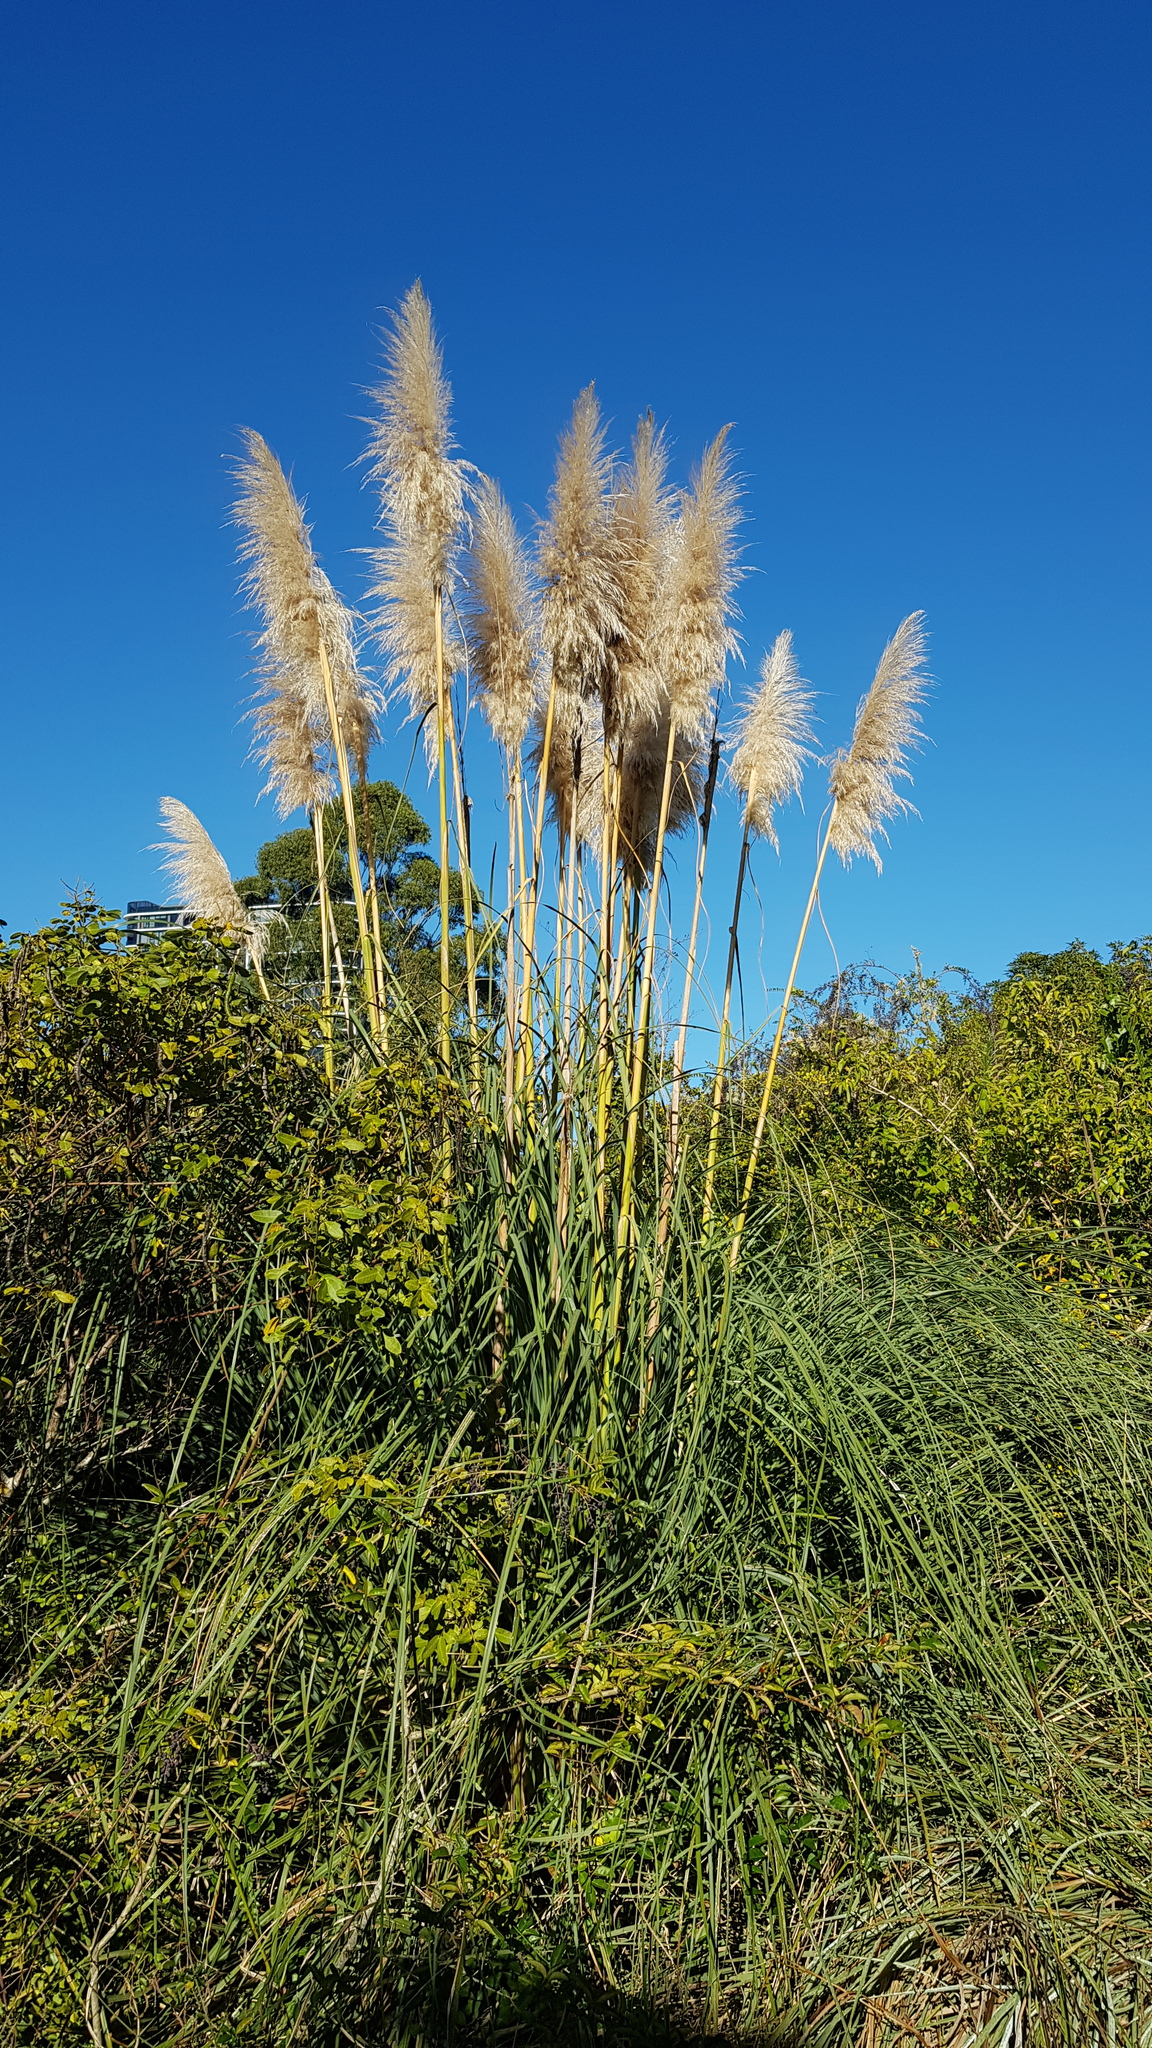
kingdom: Plantae
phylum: Tracheophyta
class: Liliopsida
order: Poales
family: Poaceae
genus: Cortaderia
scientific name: Cortaderia selloana
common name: Uruguayan pampas grass
